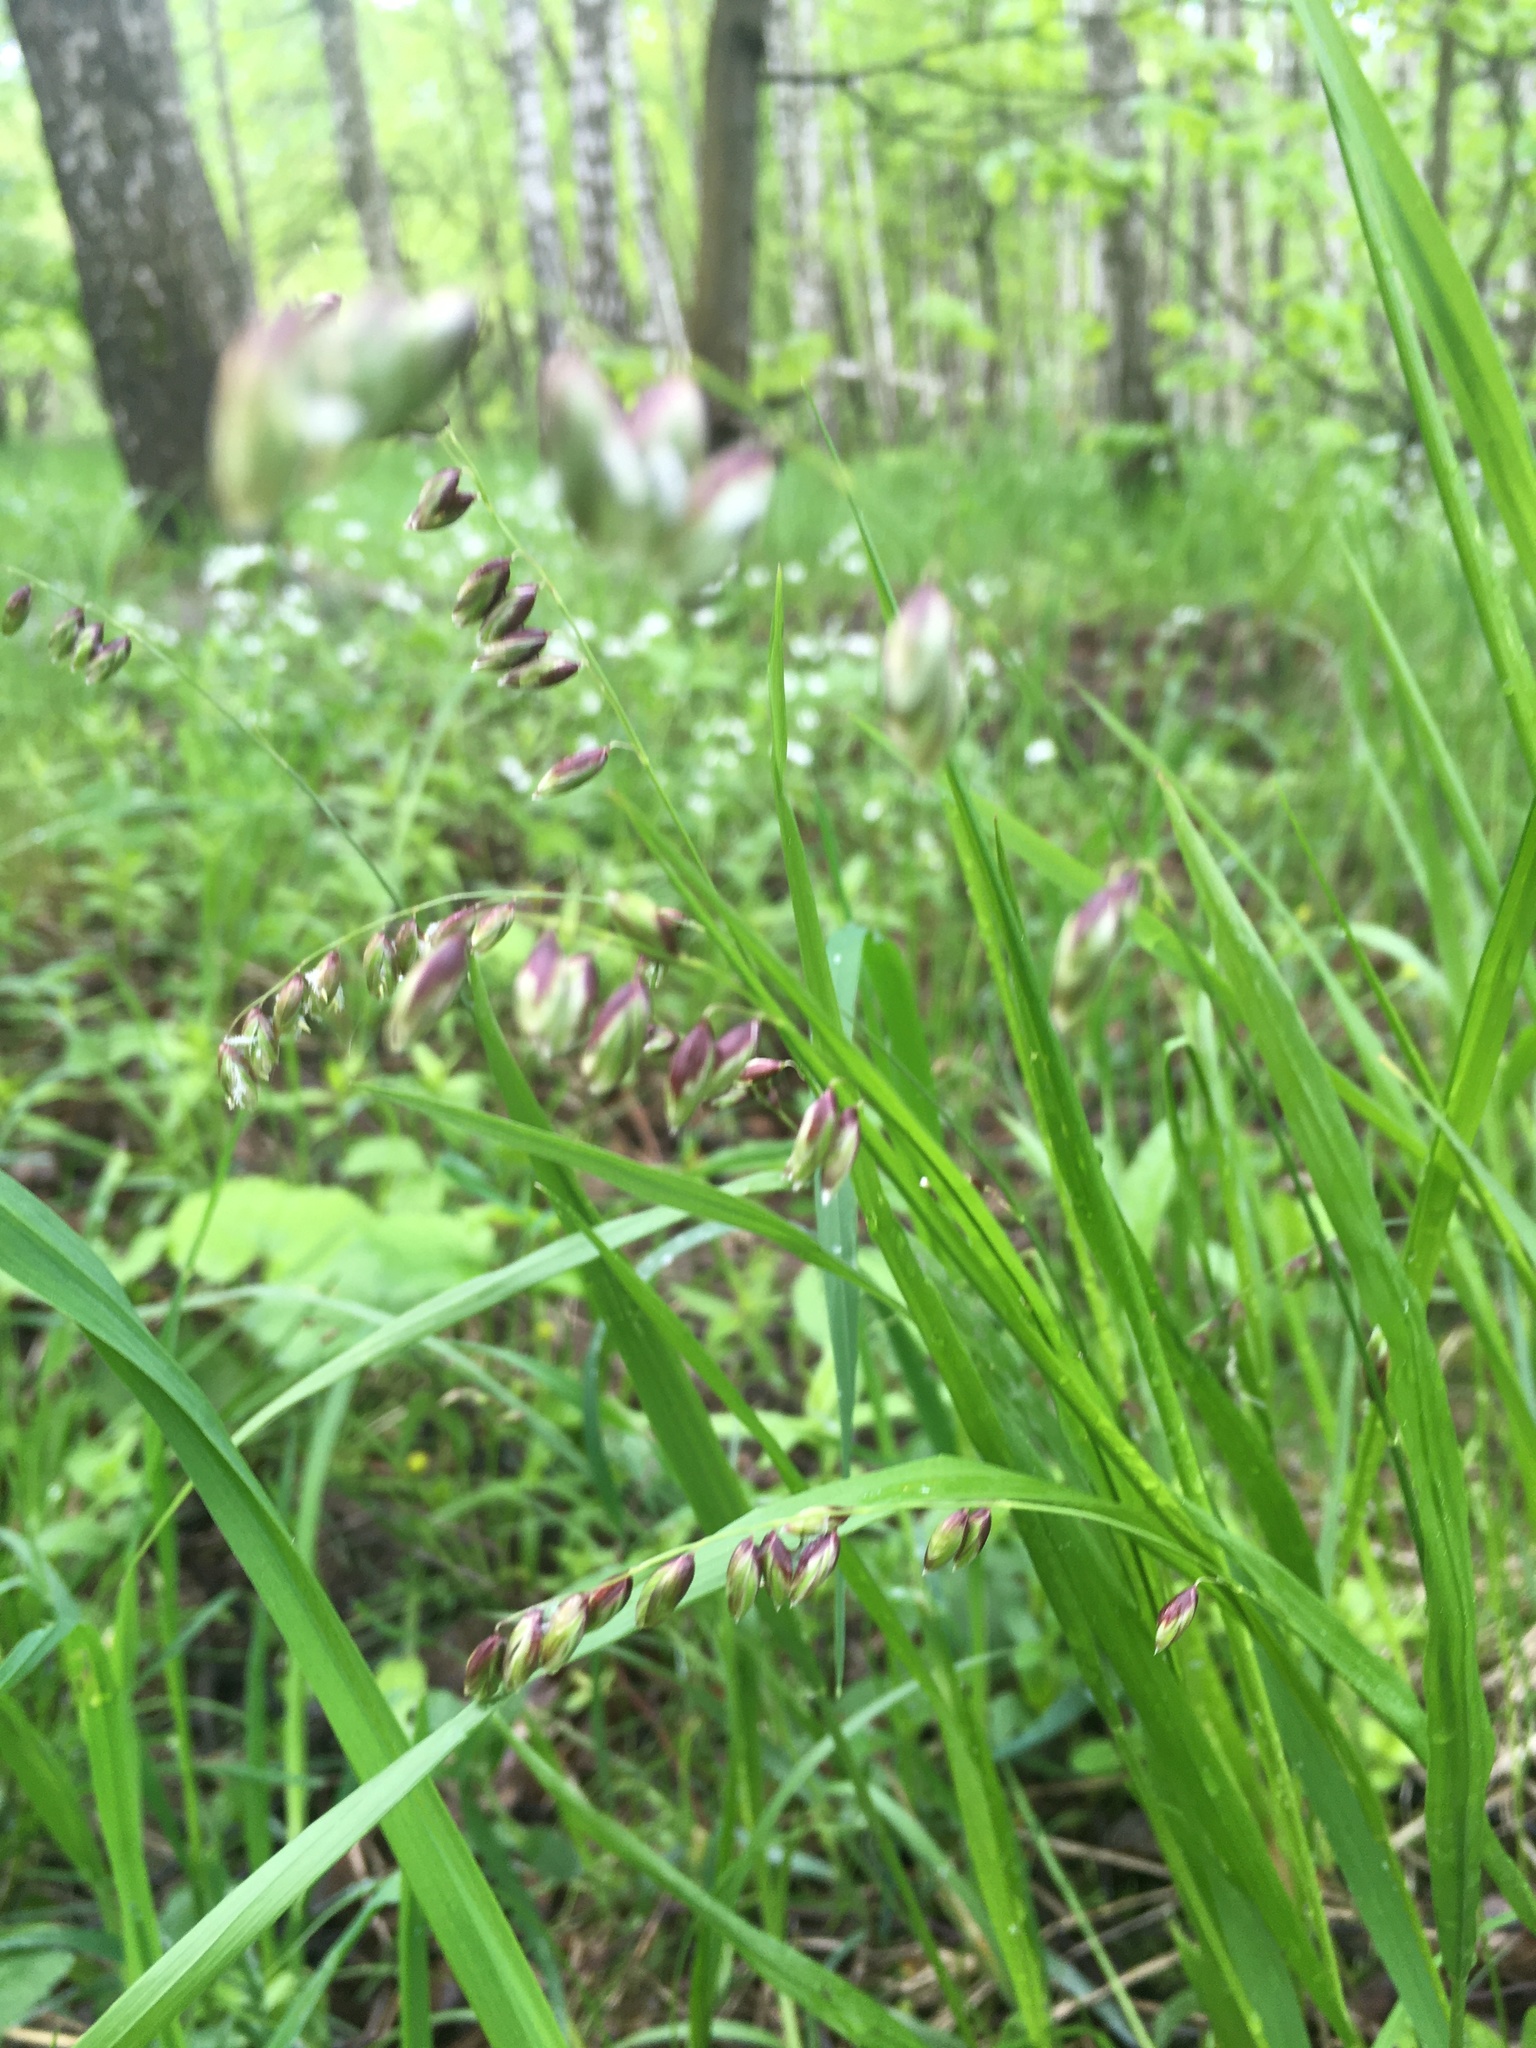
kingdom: Plantae
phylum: Tracheophyta
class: Liliopsida
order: Poales
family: Poaceae
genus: Melica
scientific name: Melica nutans
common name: Mountain melick
